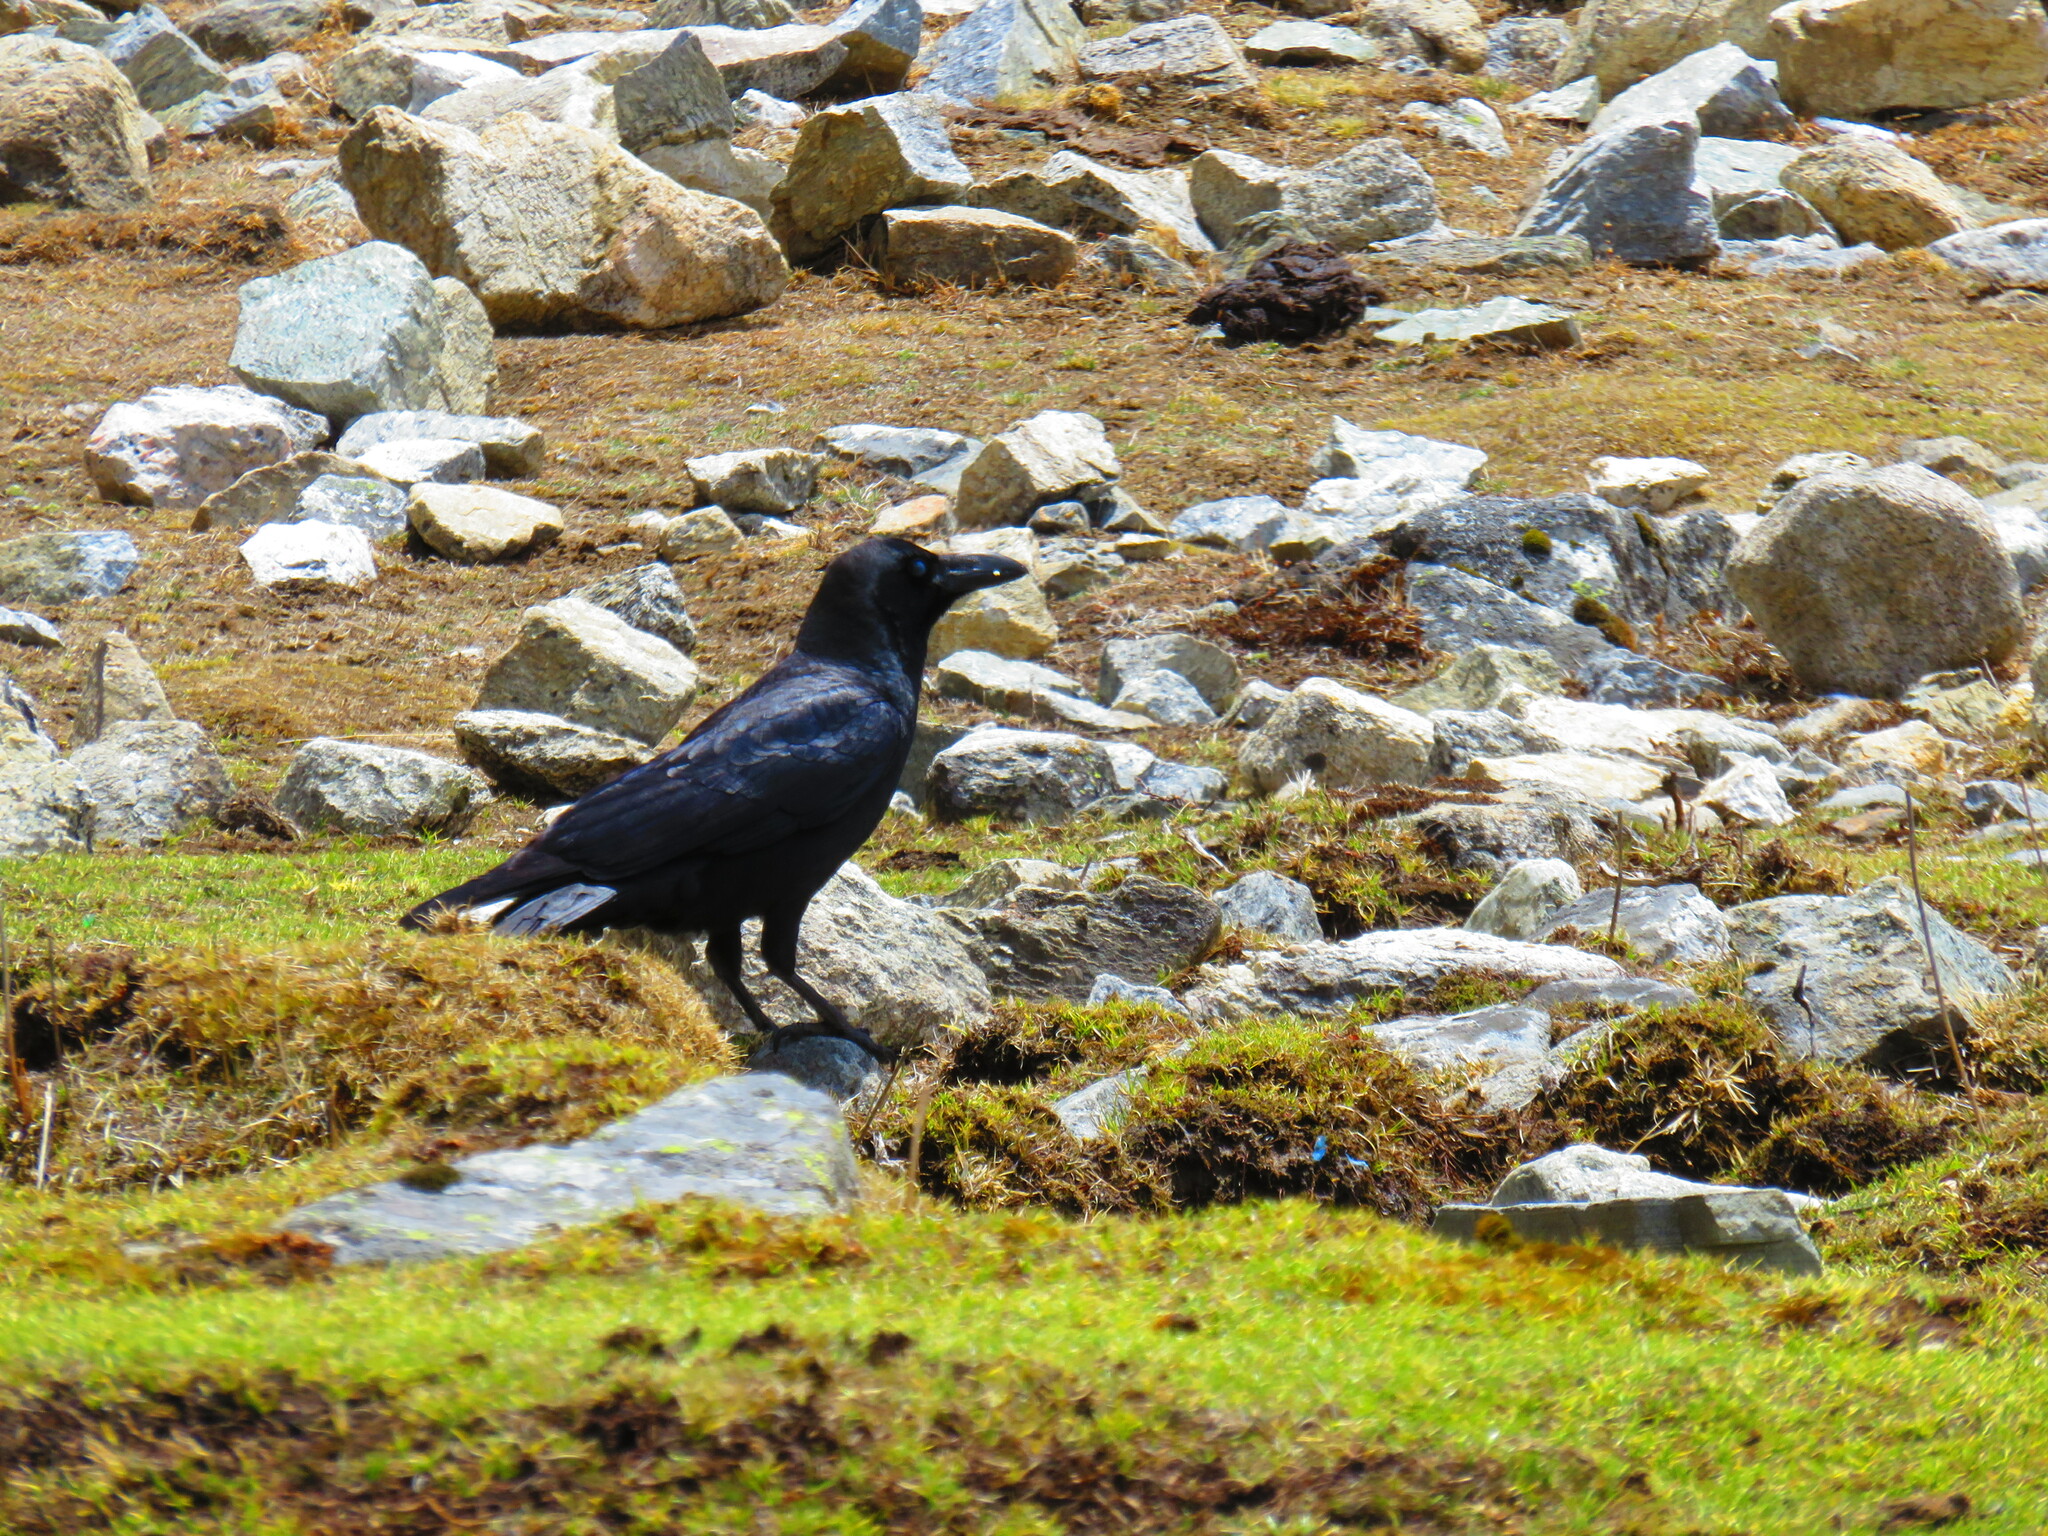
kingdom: Animalia
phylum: Chordata
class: Aves
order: Passeriformes
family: Corvidae
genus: Corvus
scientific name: Corvus macrorhynchos
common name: Large-billed crow
